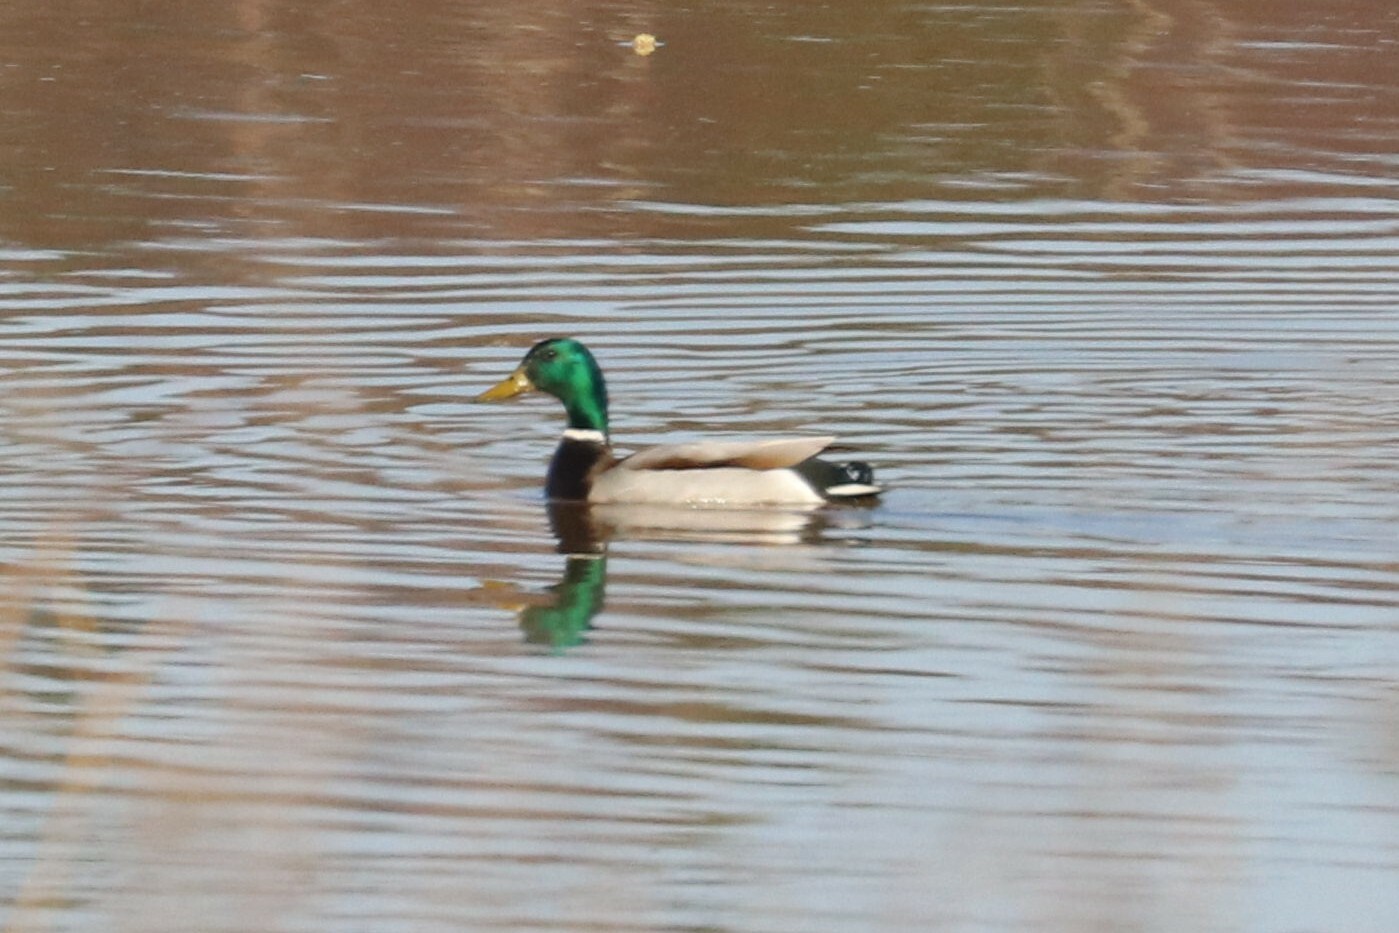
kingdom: Animalia
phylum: Chordata
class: Aves
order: Anseriformes
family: Anatidae
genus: Anas
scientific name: Anas platyrhynchos
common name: Mallard
